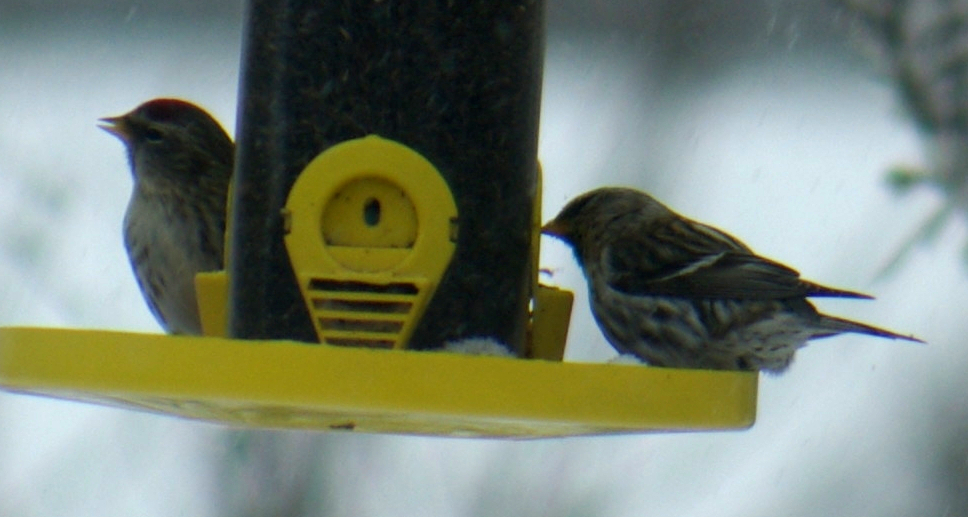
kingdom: Animalia
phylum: Chordata
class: Aves
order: Passeriformes
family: Fringillidae
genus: Acanthis
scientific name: Acanthis flammea
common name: Common redpoll
